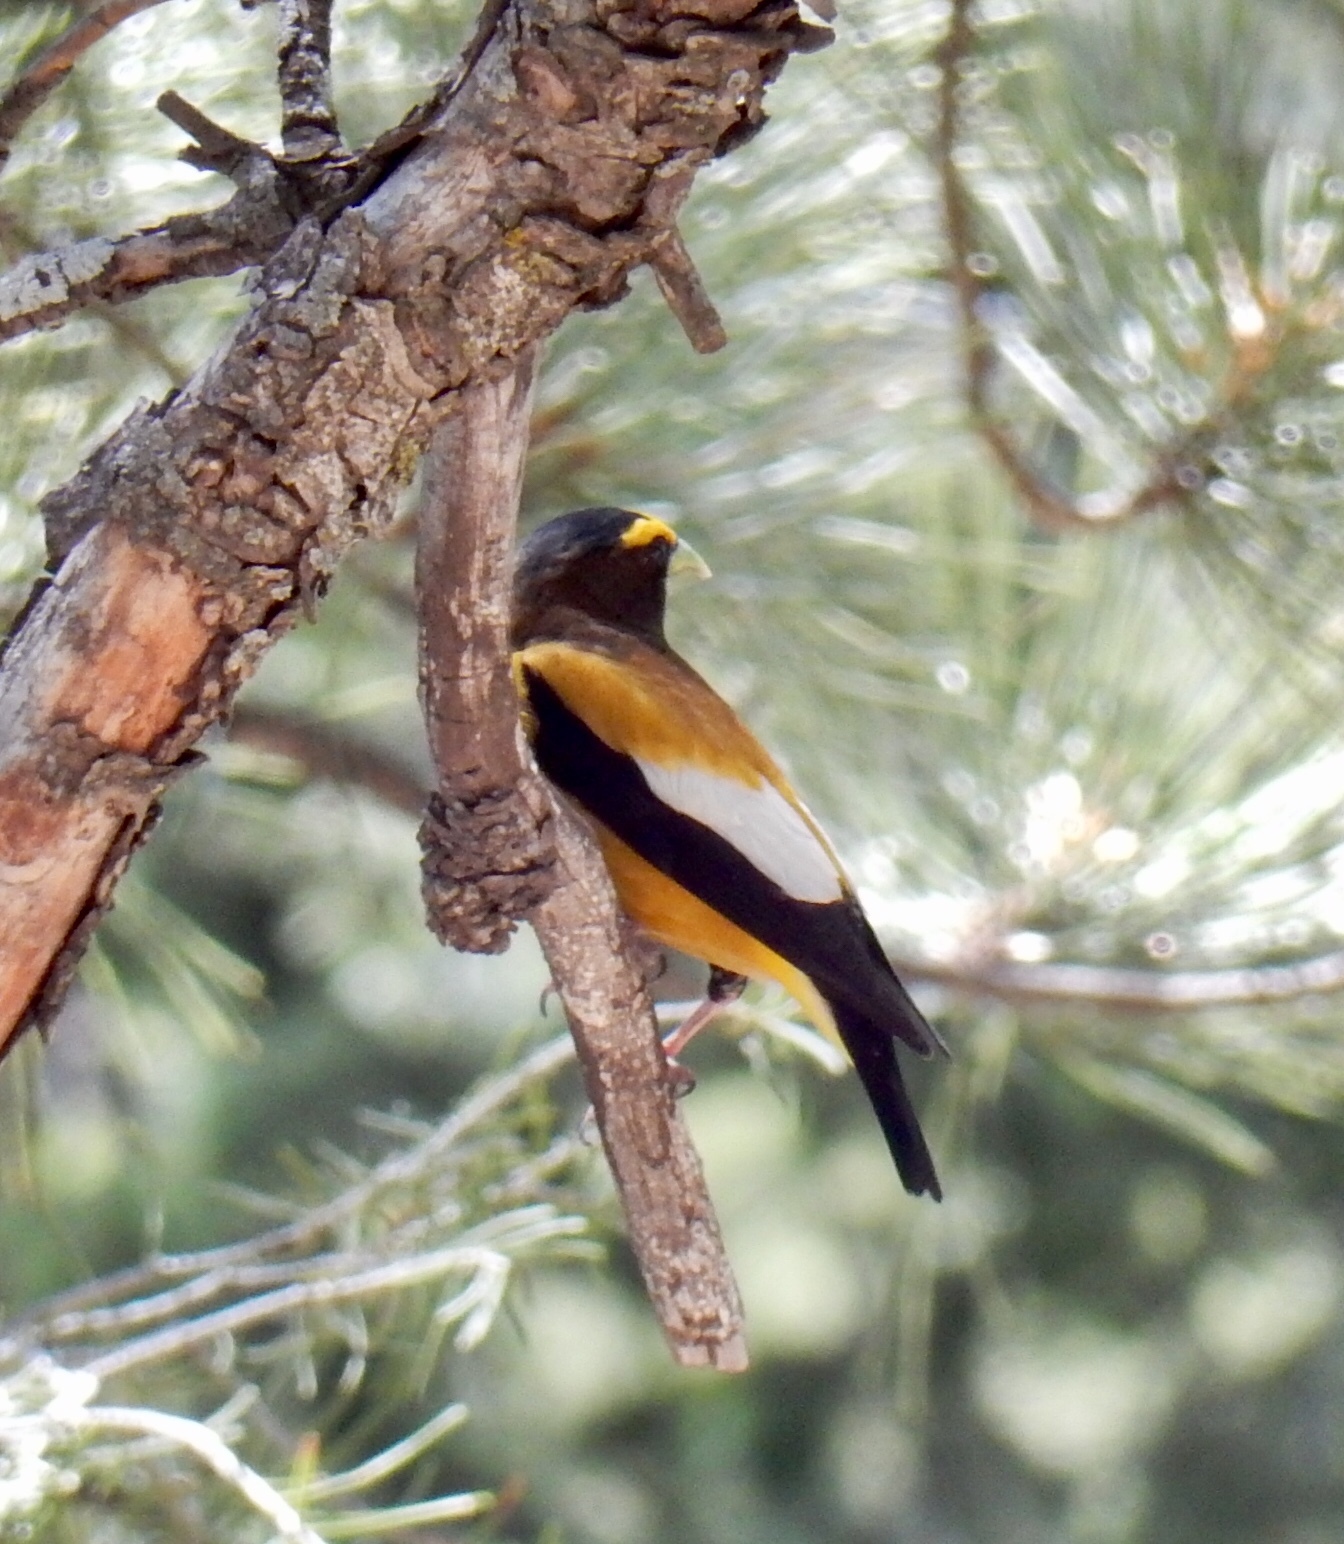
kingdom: Animalia
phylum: Chordata
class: Aves
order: Passeriformes
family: Fringillidae
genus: Hesperiphona
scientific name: Hesperiphona vespertina
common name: Evening grosbeak
